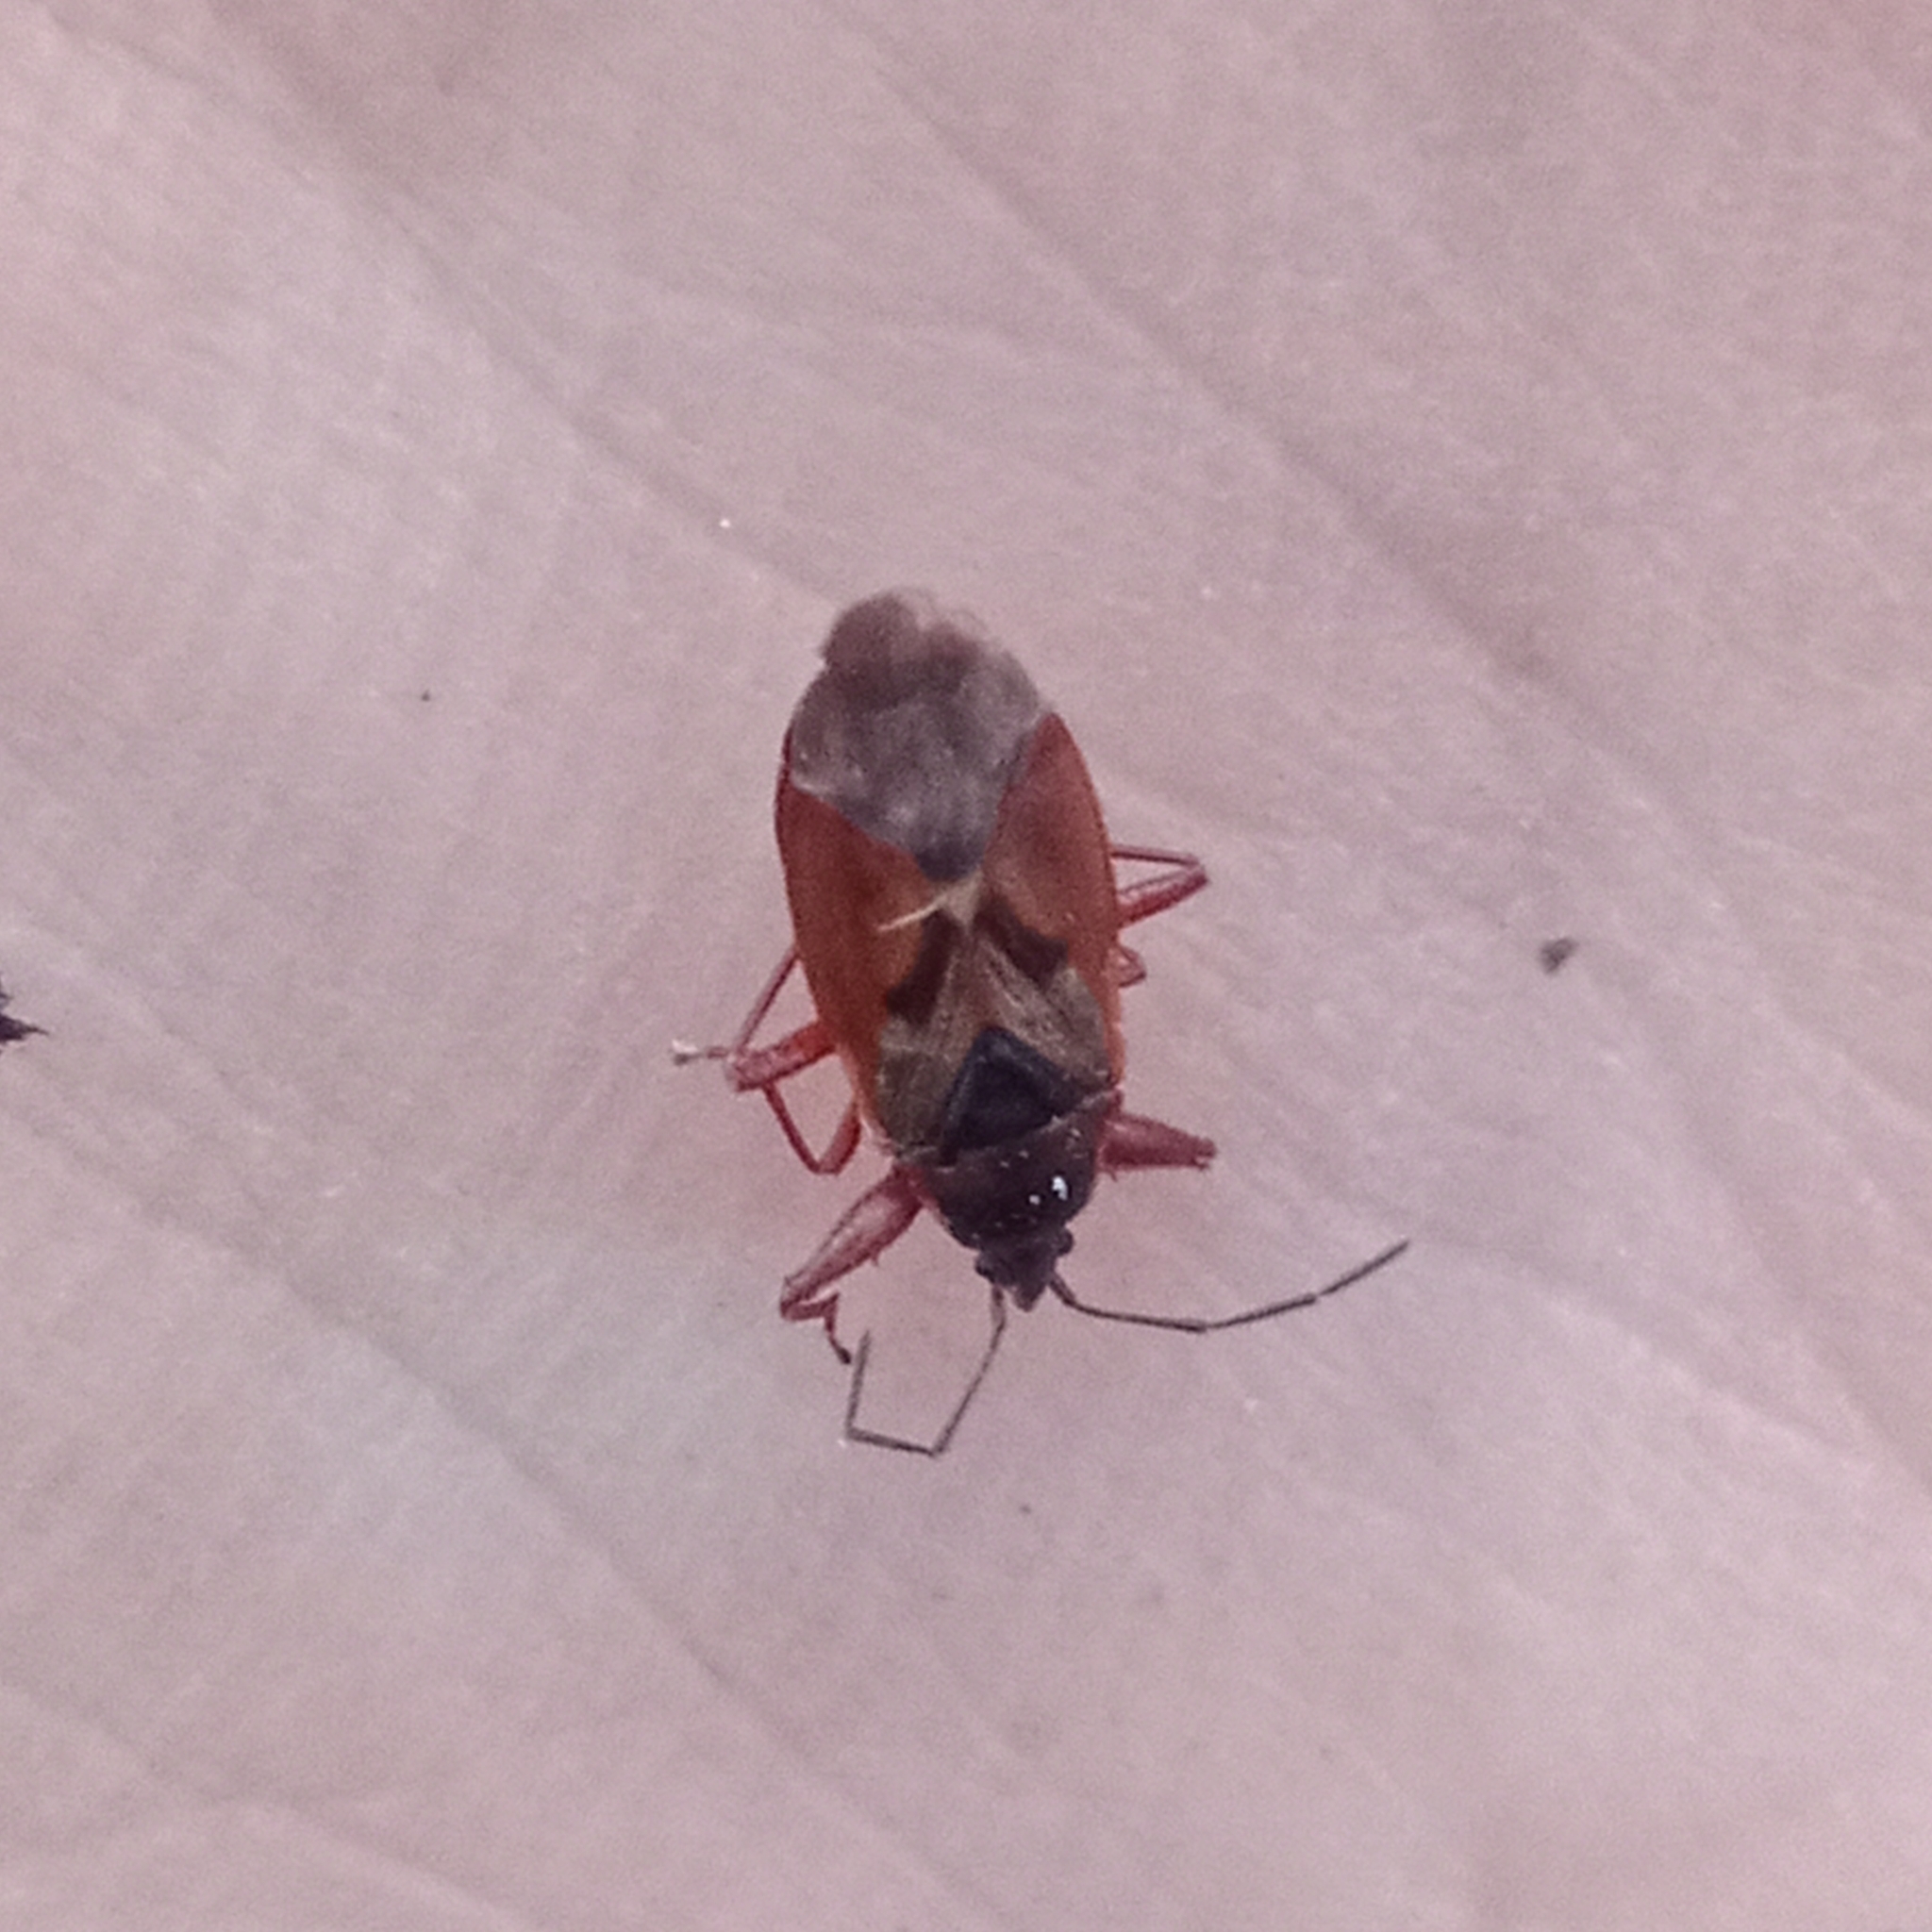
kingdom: Animalia
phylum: Arthropoda
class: Insecta
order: Hemiptera
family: Rhyparochromidae
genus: Gastrodes
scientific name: Gastrodes abietum
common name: Spruce cone bug
